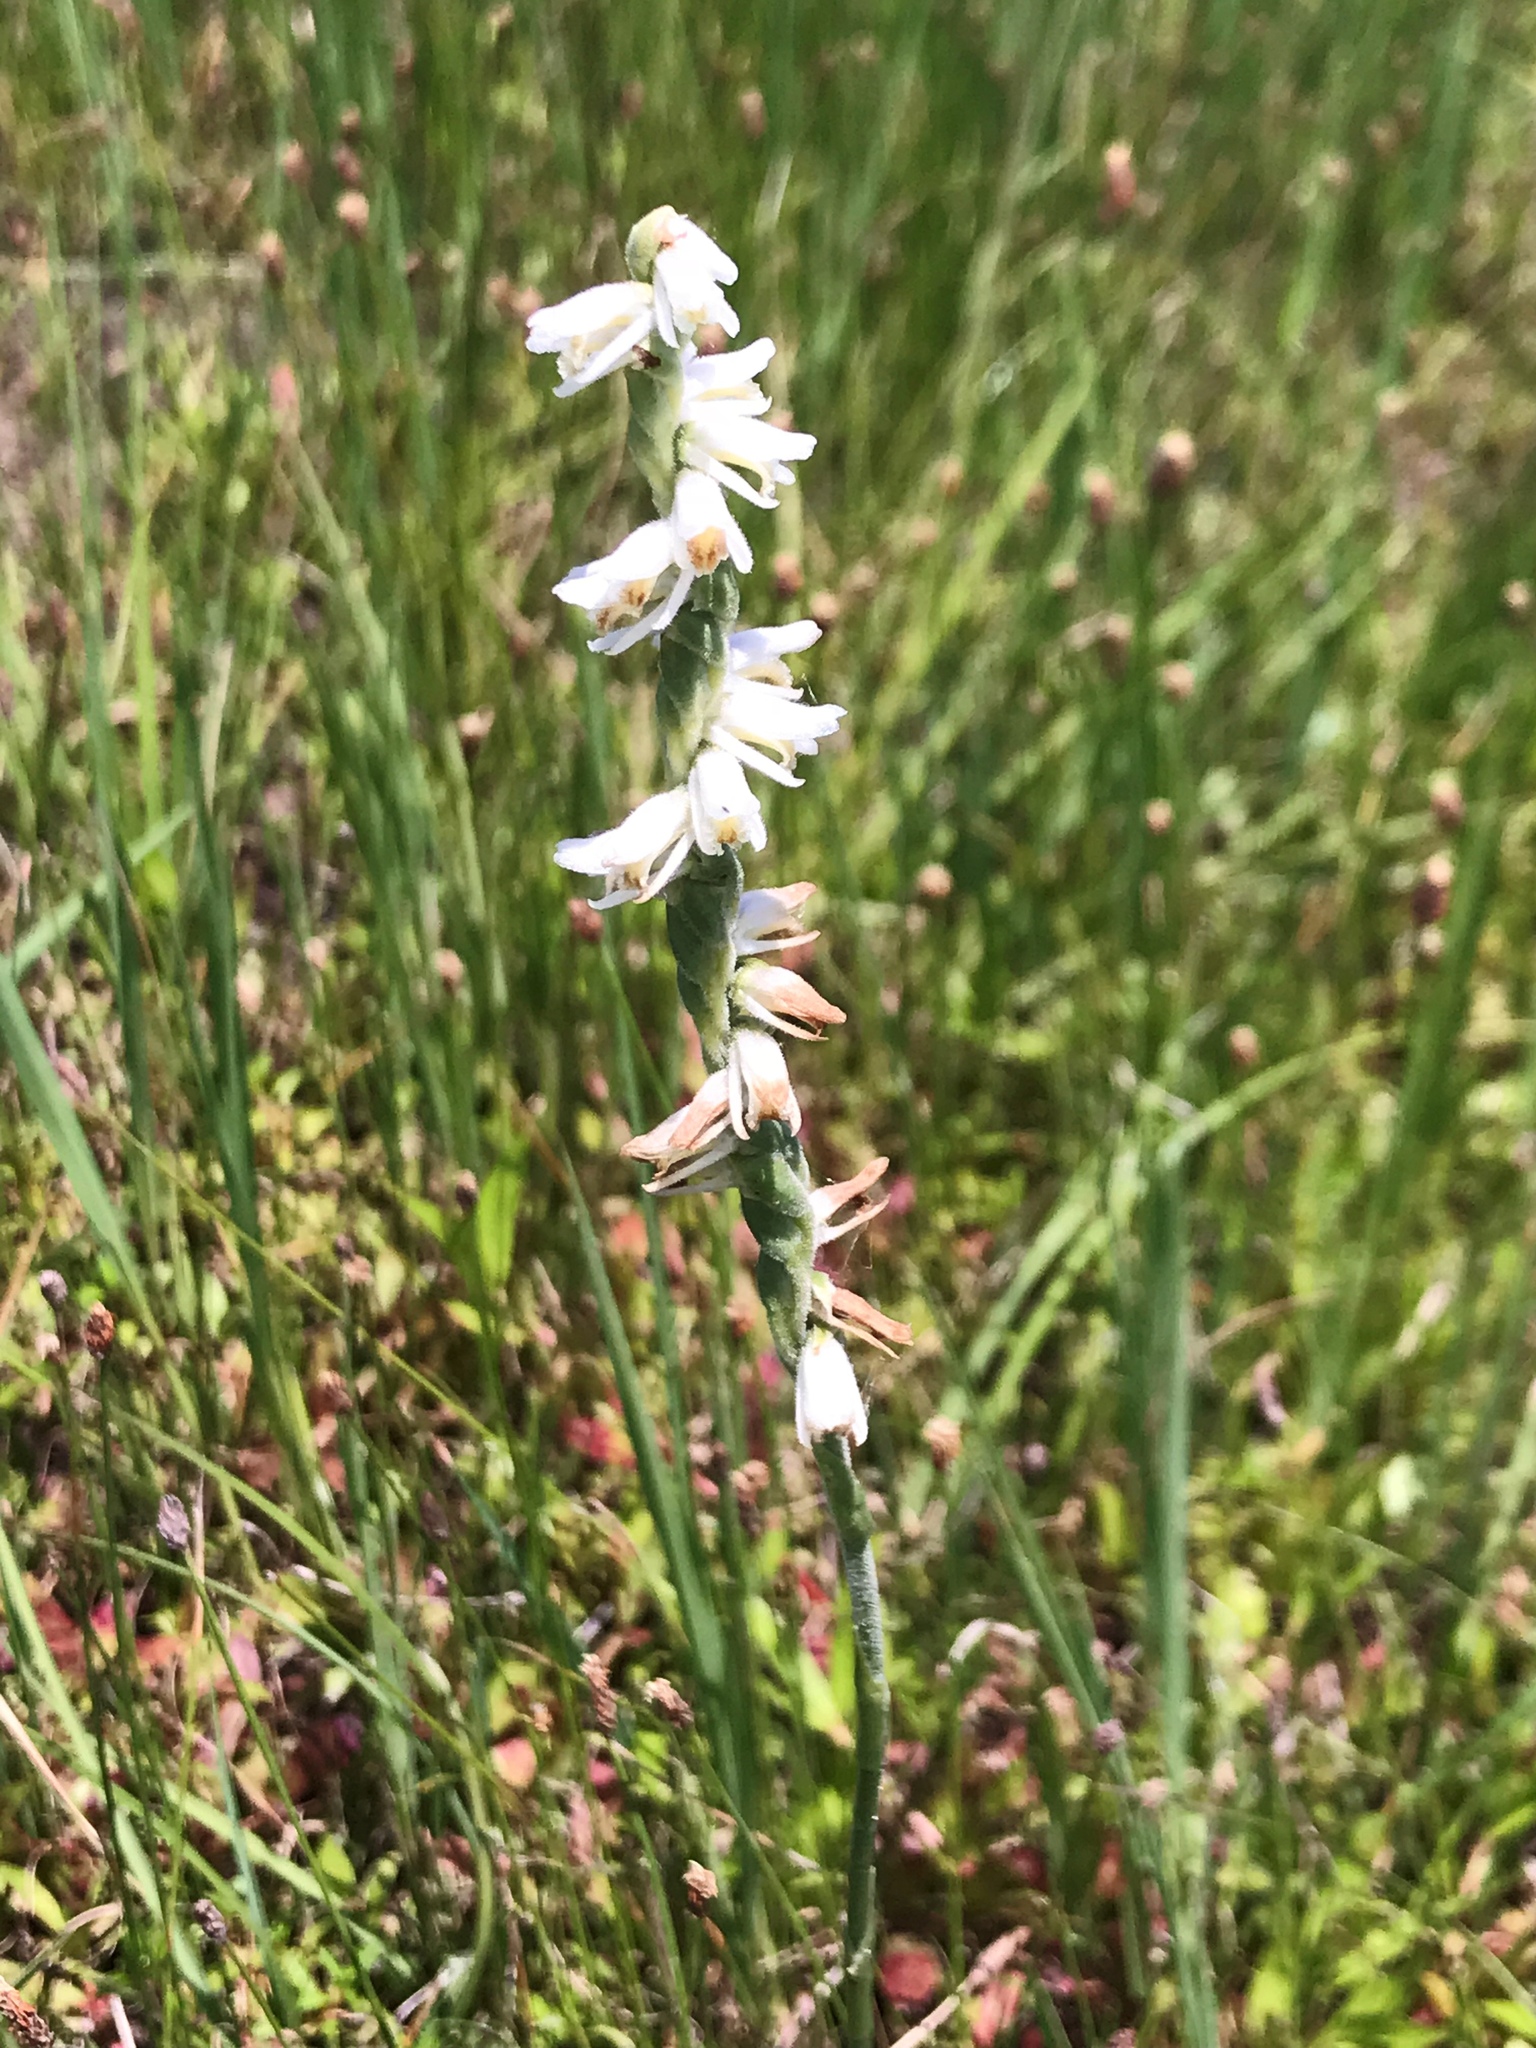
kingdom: Plantae
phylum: Tracheophyta
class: Liliopsida
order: Asparagales
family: Orchidaceae
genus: Spiranthes
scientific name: Spiranthes vernalis
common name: Spring ladies'-tresses
